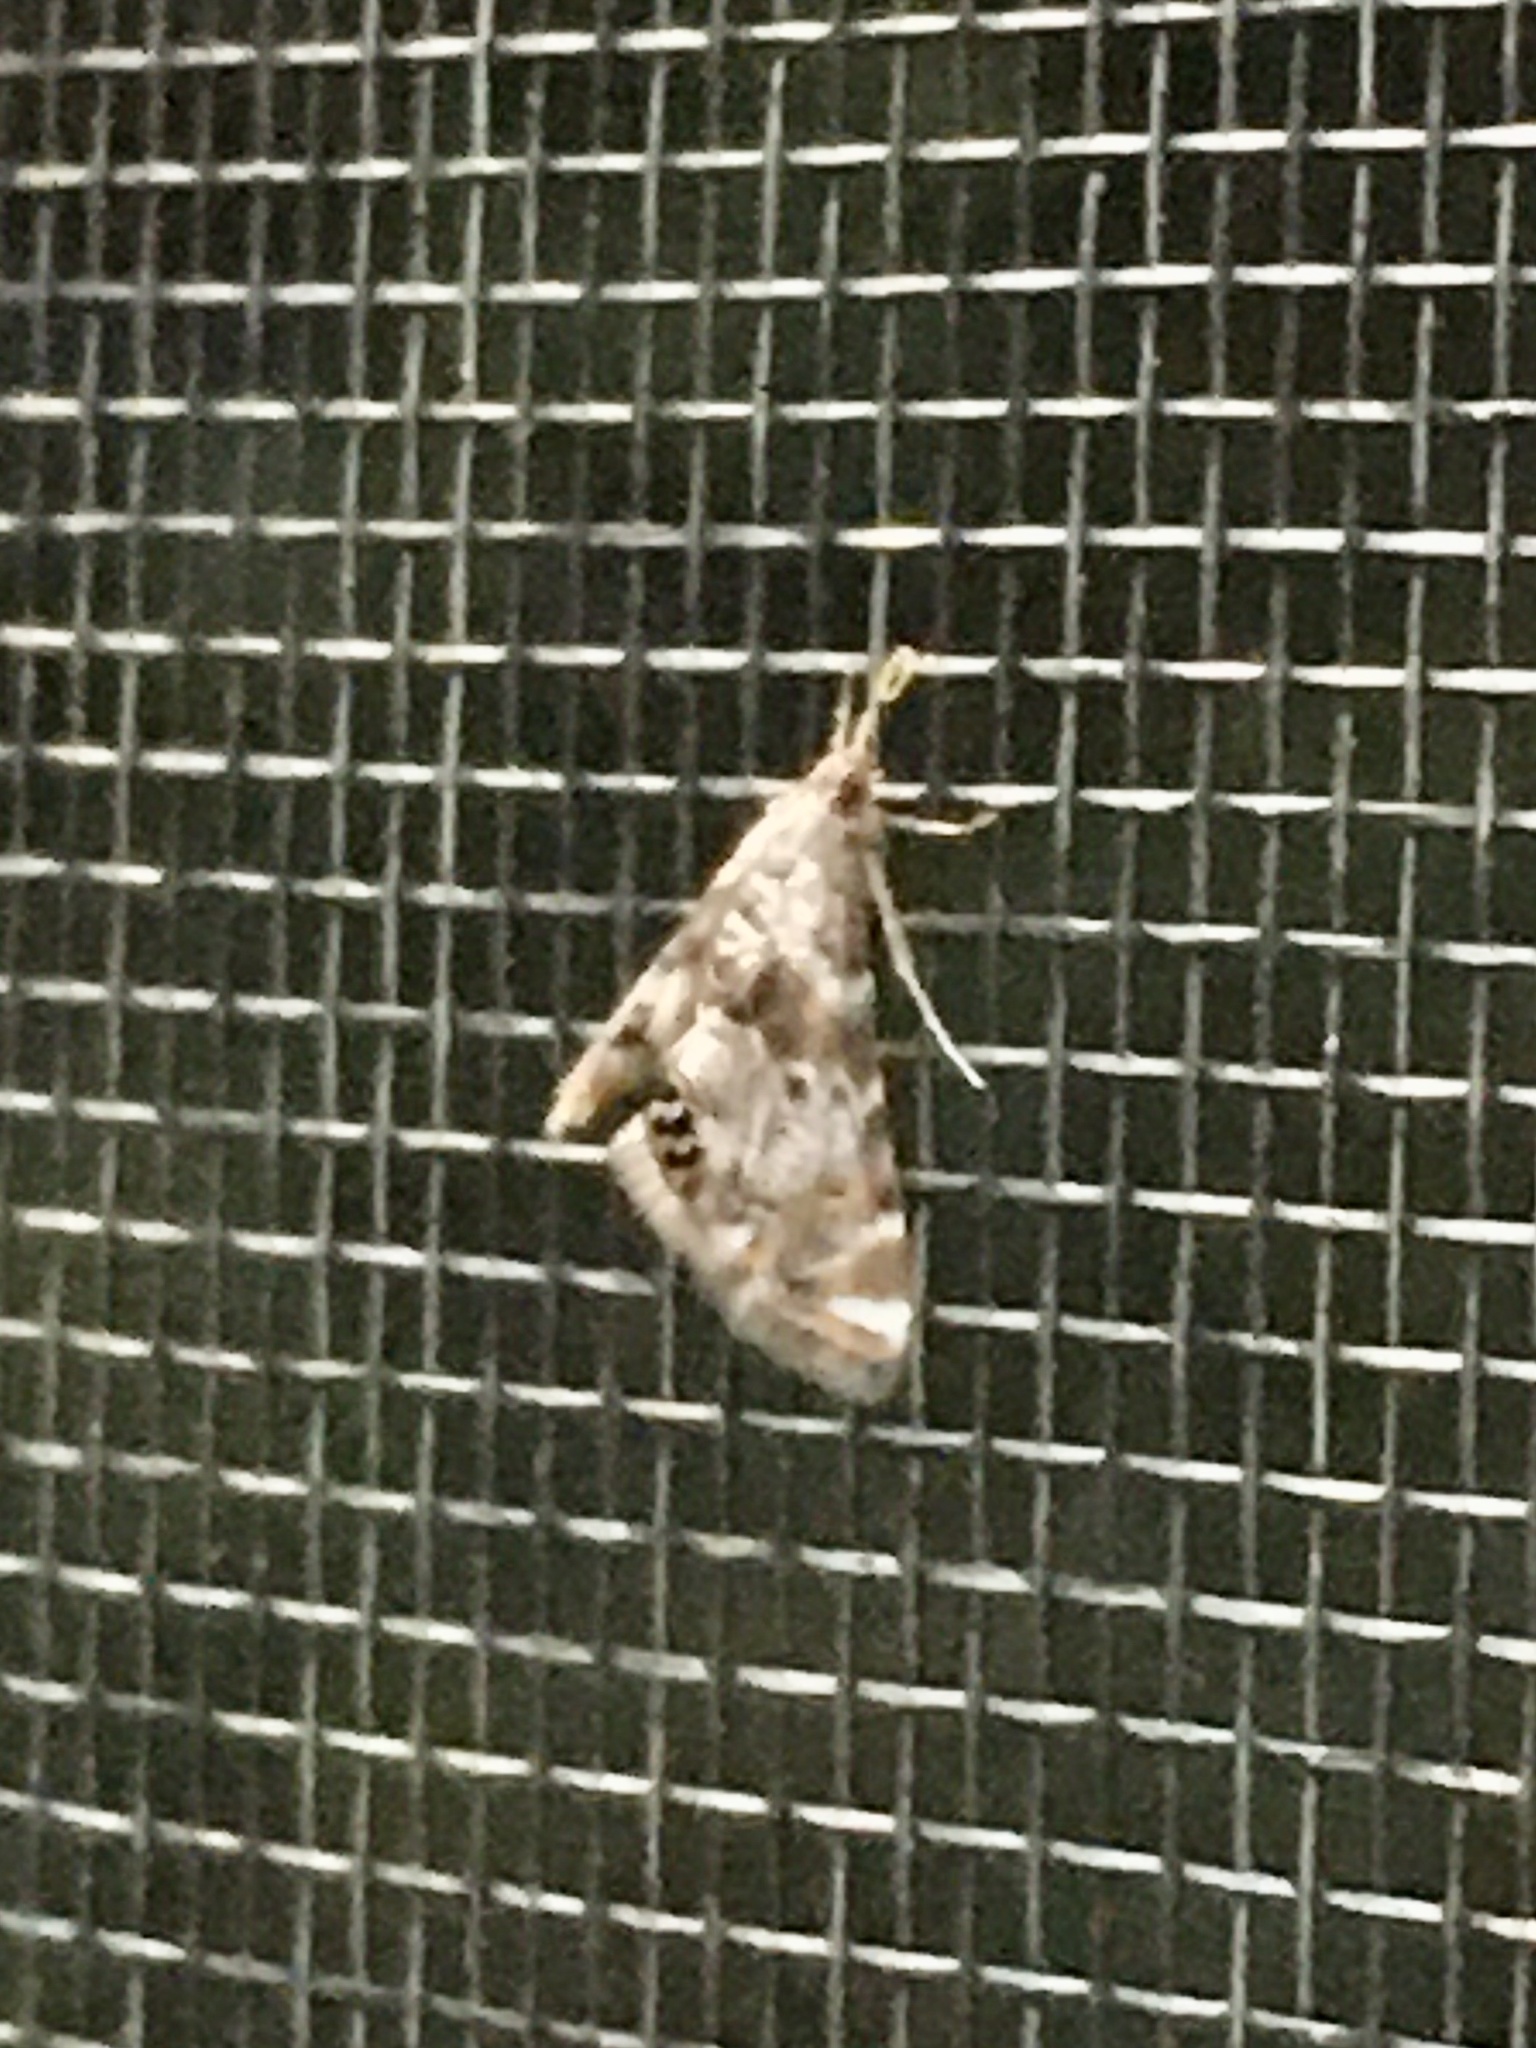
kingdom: Animalia
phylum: Arthropoda
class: Insecta
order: Lepidoptera
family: Crambidae
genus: Petrophila
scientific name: Petrophila fulicalis
